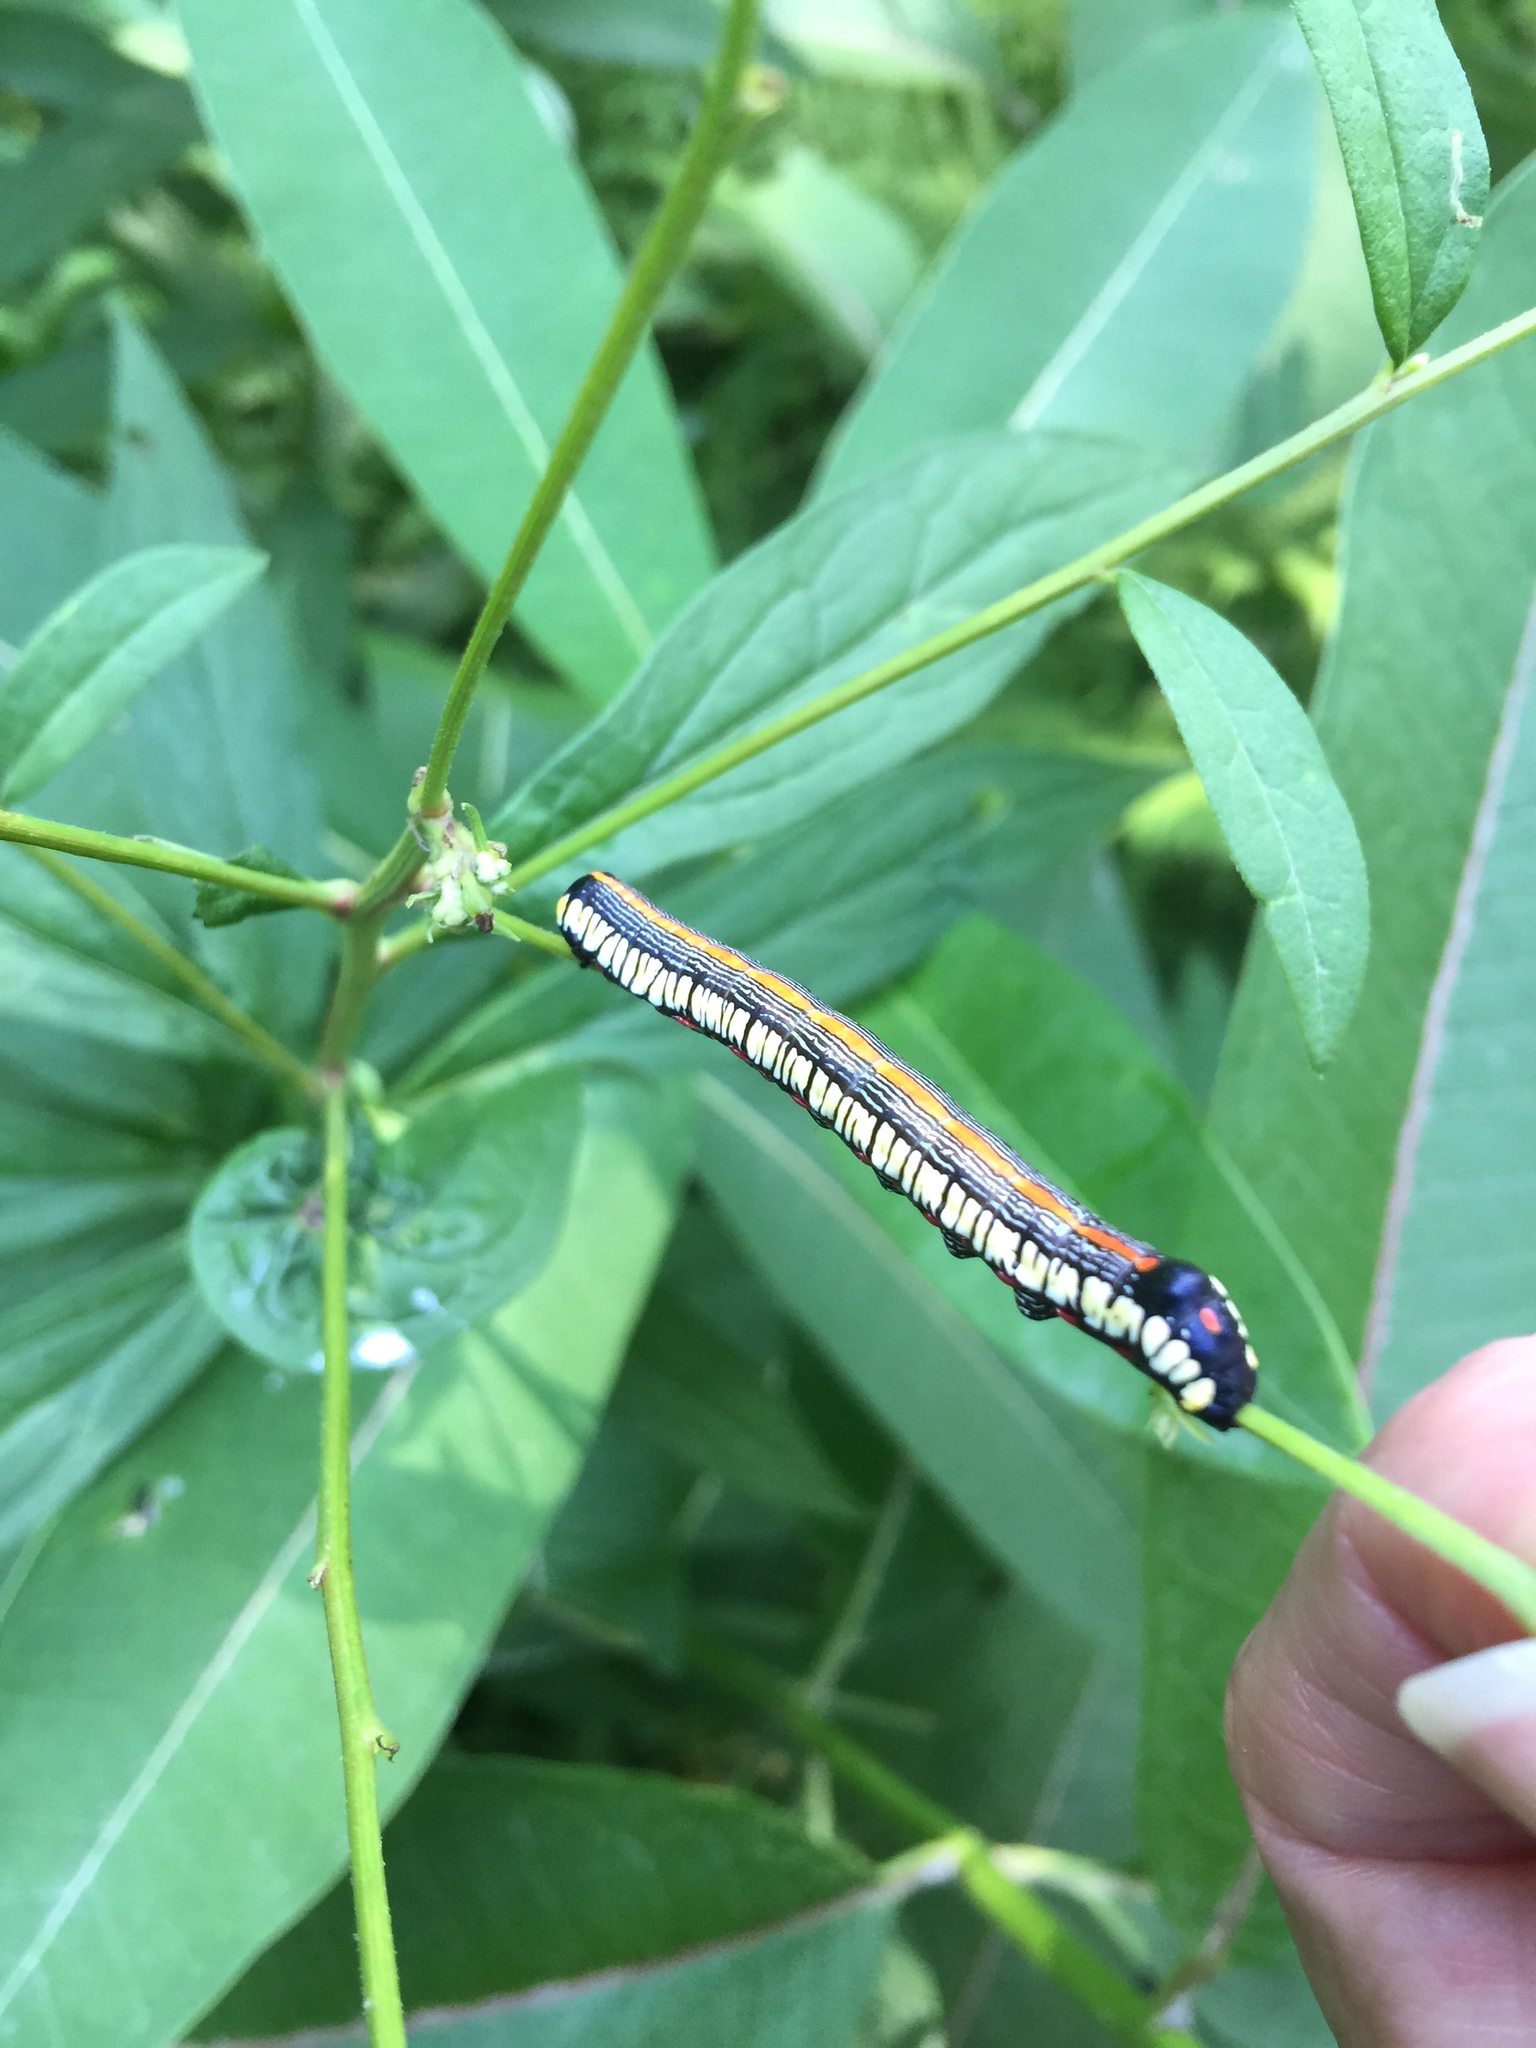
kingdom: Animalia
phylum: Arthropoda
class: Insecta
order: Lepidoptera
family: Noctuidae
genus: Cucullia
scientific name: Cucullia convexipennis
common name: Brown-hooded owlet
